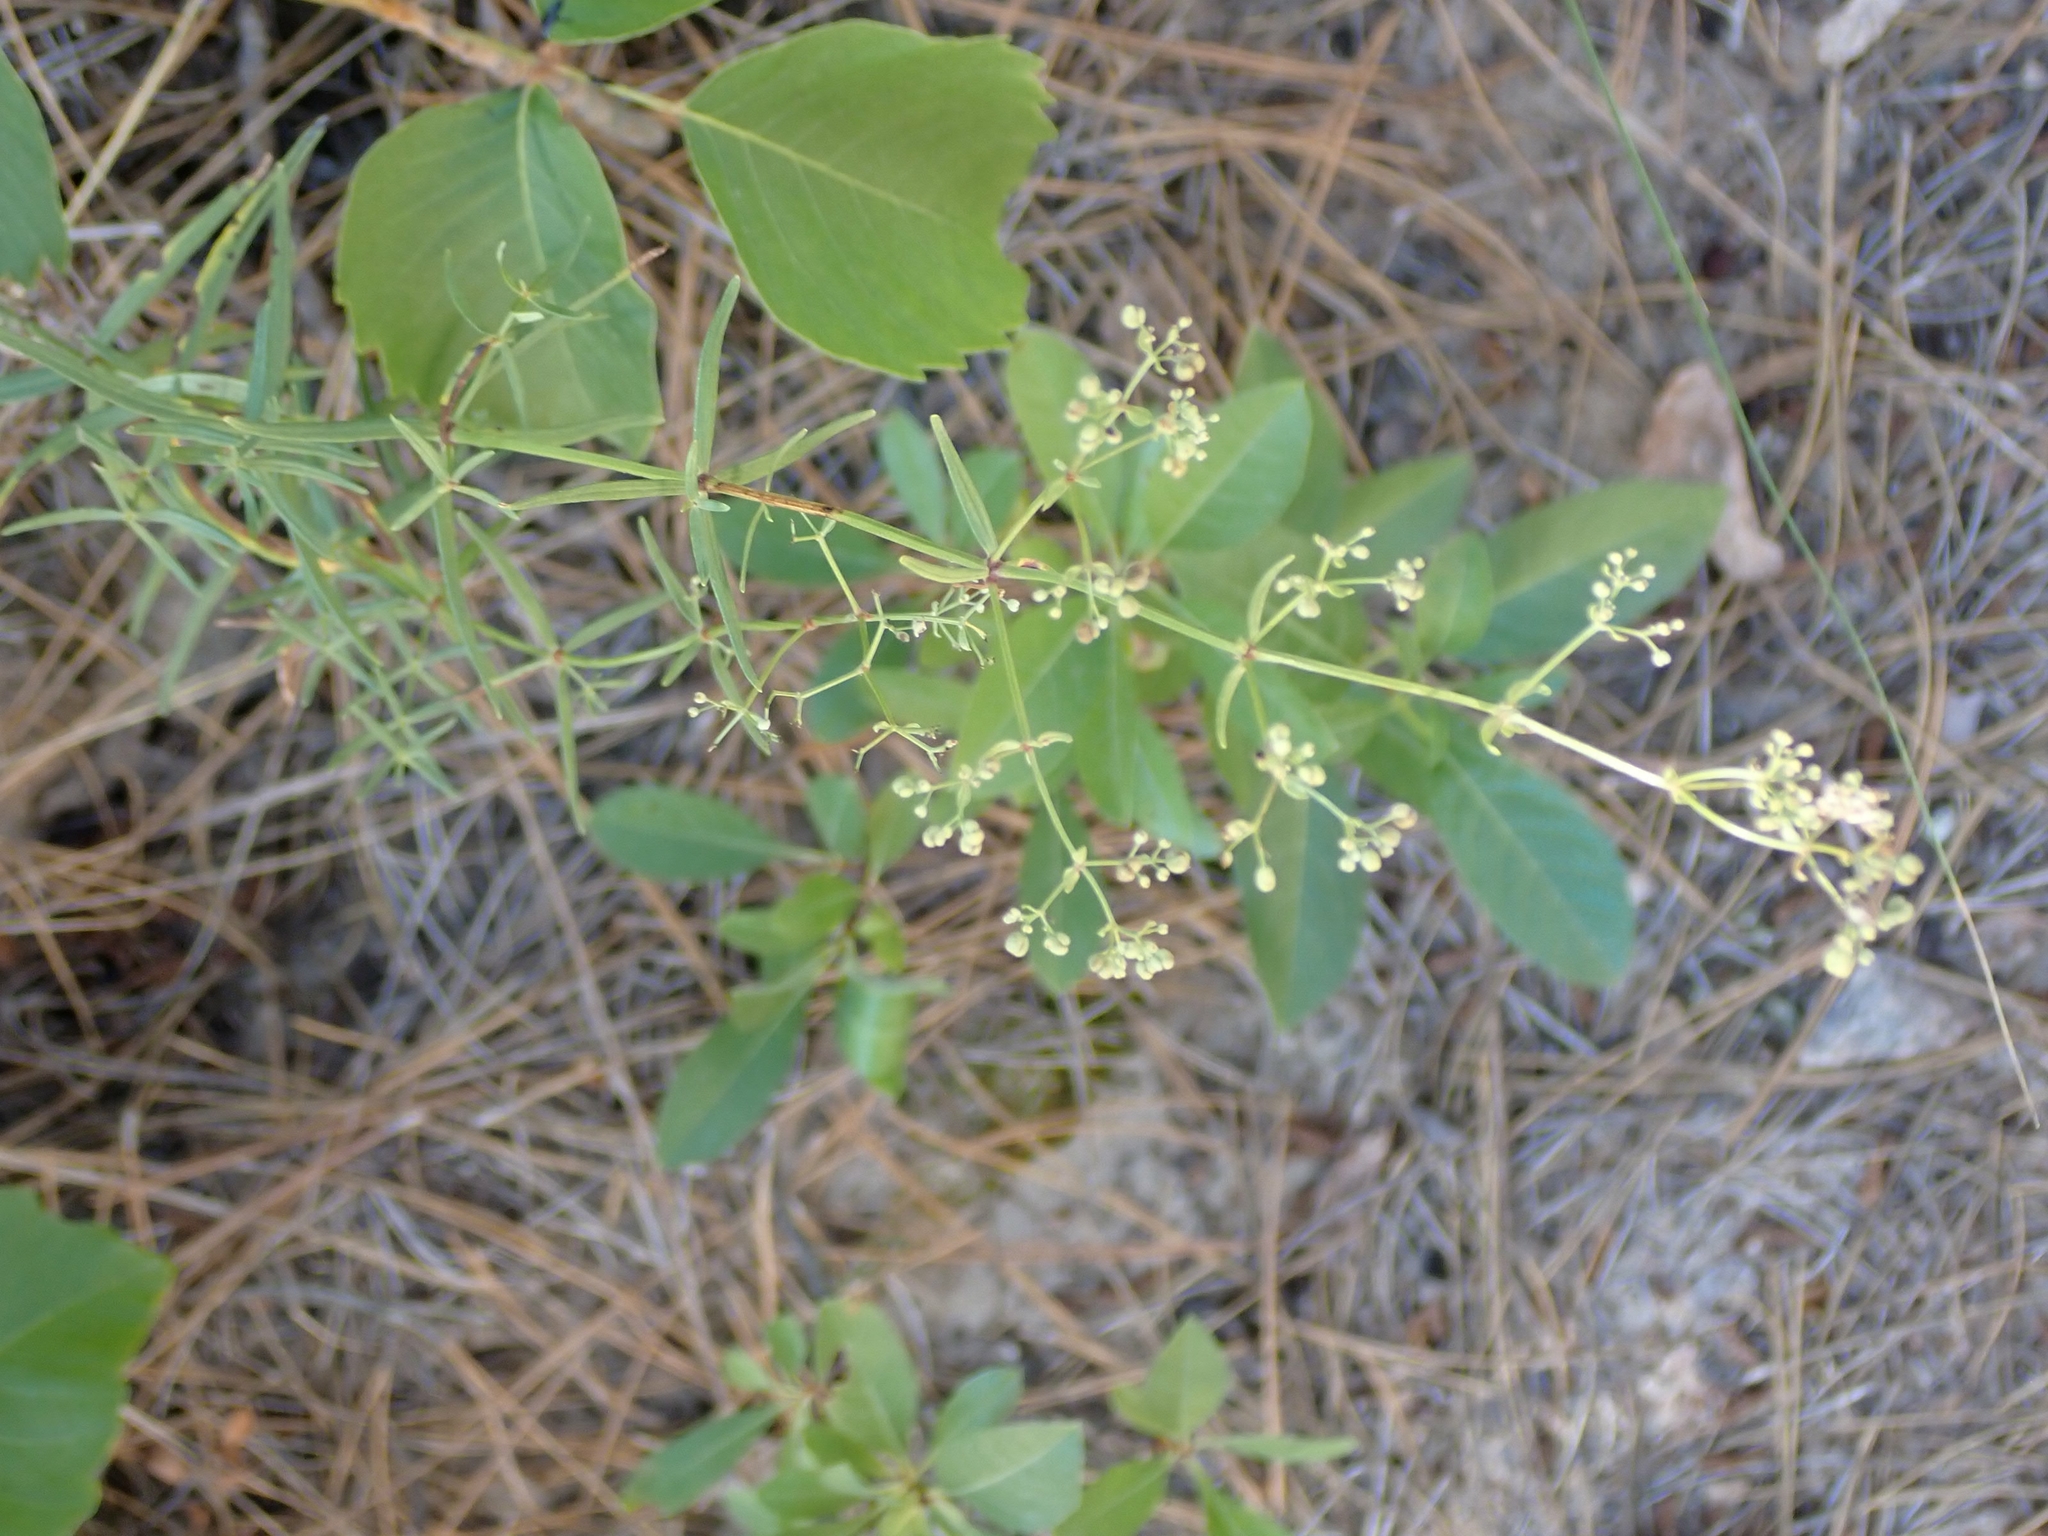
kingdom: Plantae
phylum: Tracheophyta
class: Magnoliopsida
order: Gentianales
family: Rubiaceae
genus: Galium
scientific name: Galium boreale
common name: Northern bedstraw
